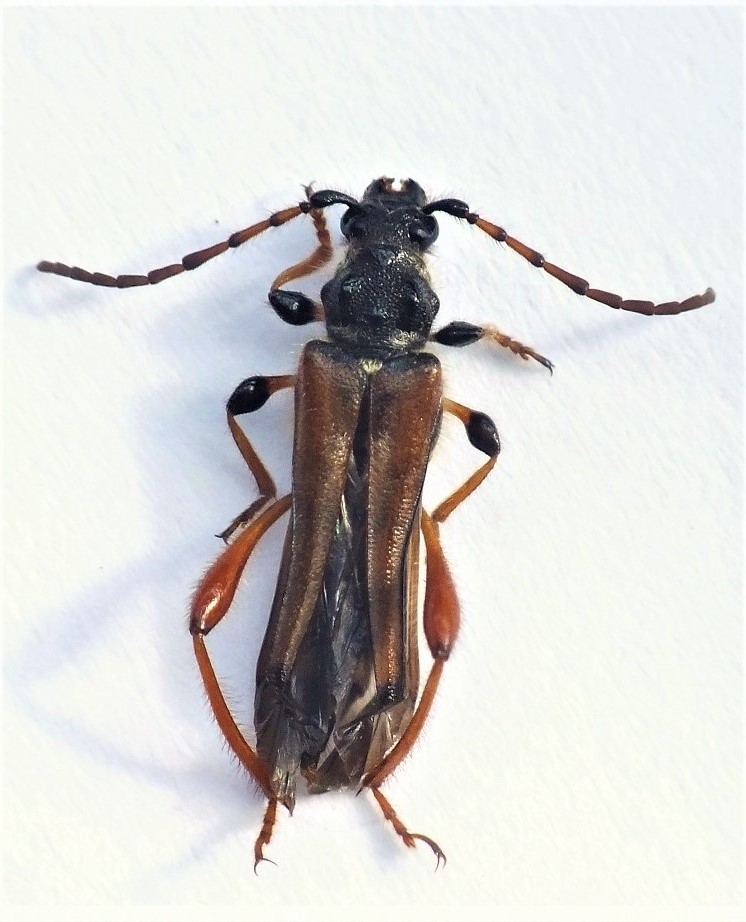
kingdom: Animalia
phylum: Arthropoda
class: Insecta
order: Coleoptera
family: Cerambycidae
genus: Stenopterus
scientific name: Stenopterus rufus
